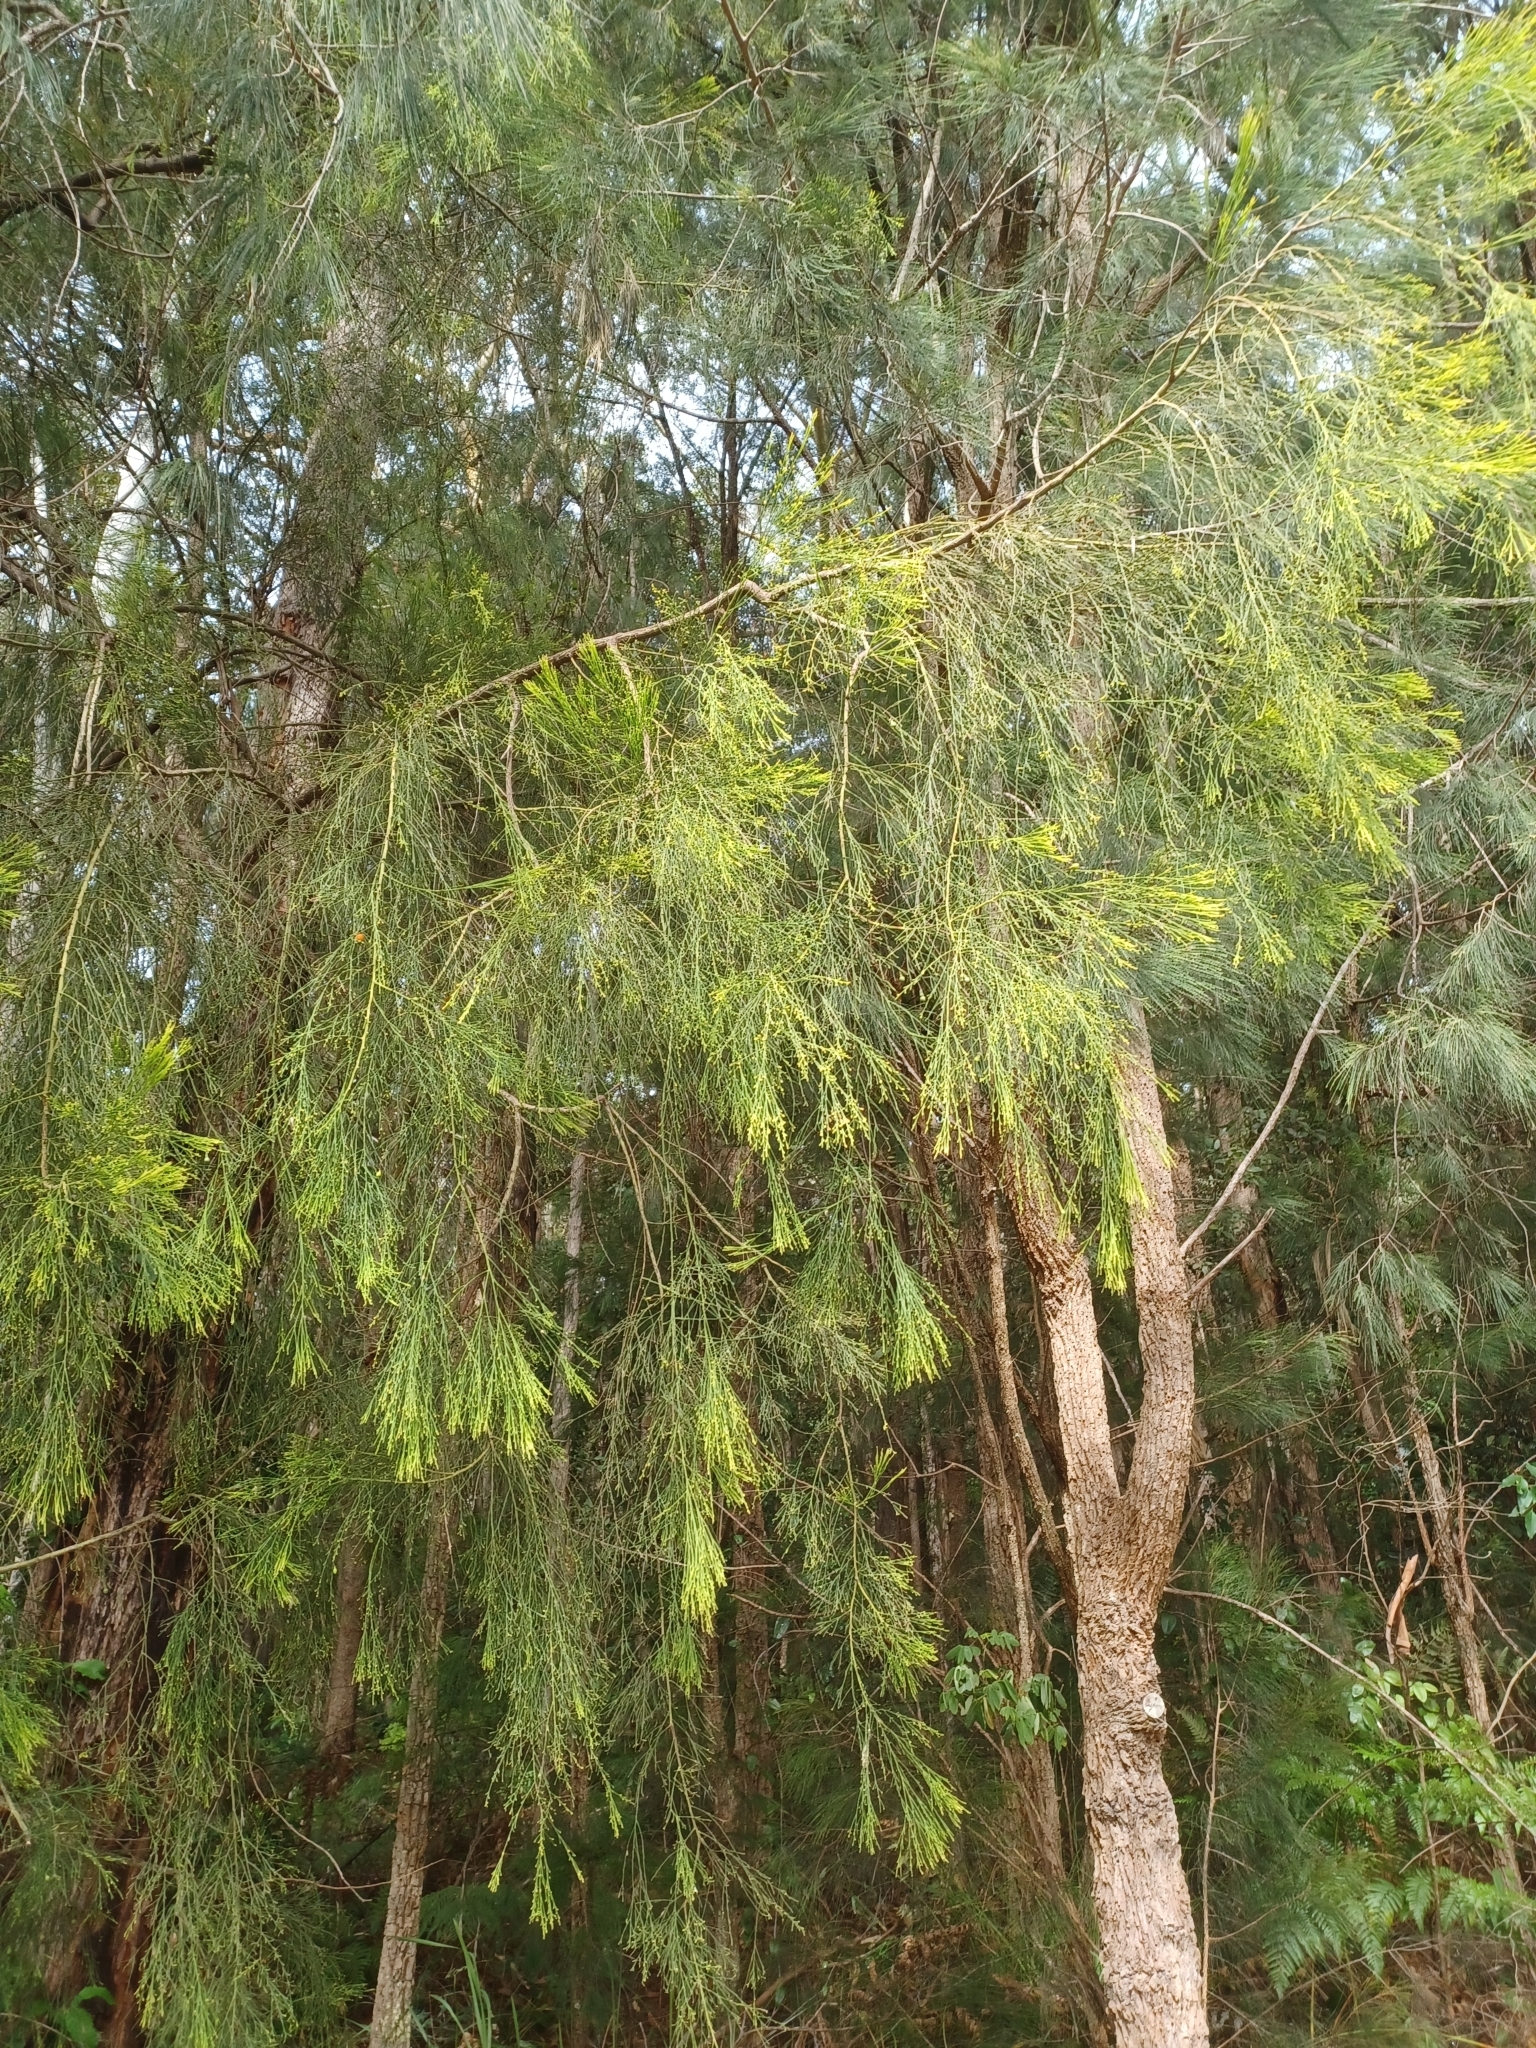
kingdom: Plantae
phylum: Tracheophyta
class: Magnoliopsida
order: Santalales
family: Santalaceae
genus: Exocarpos
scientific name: Exocarpos cupressiformis
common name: Cherry ballart
